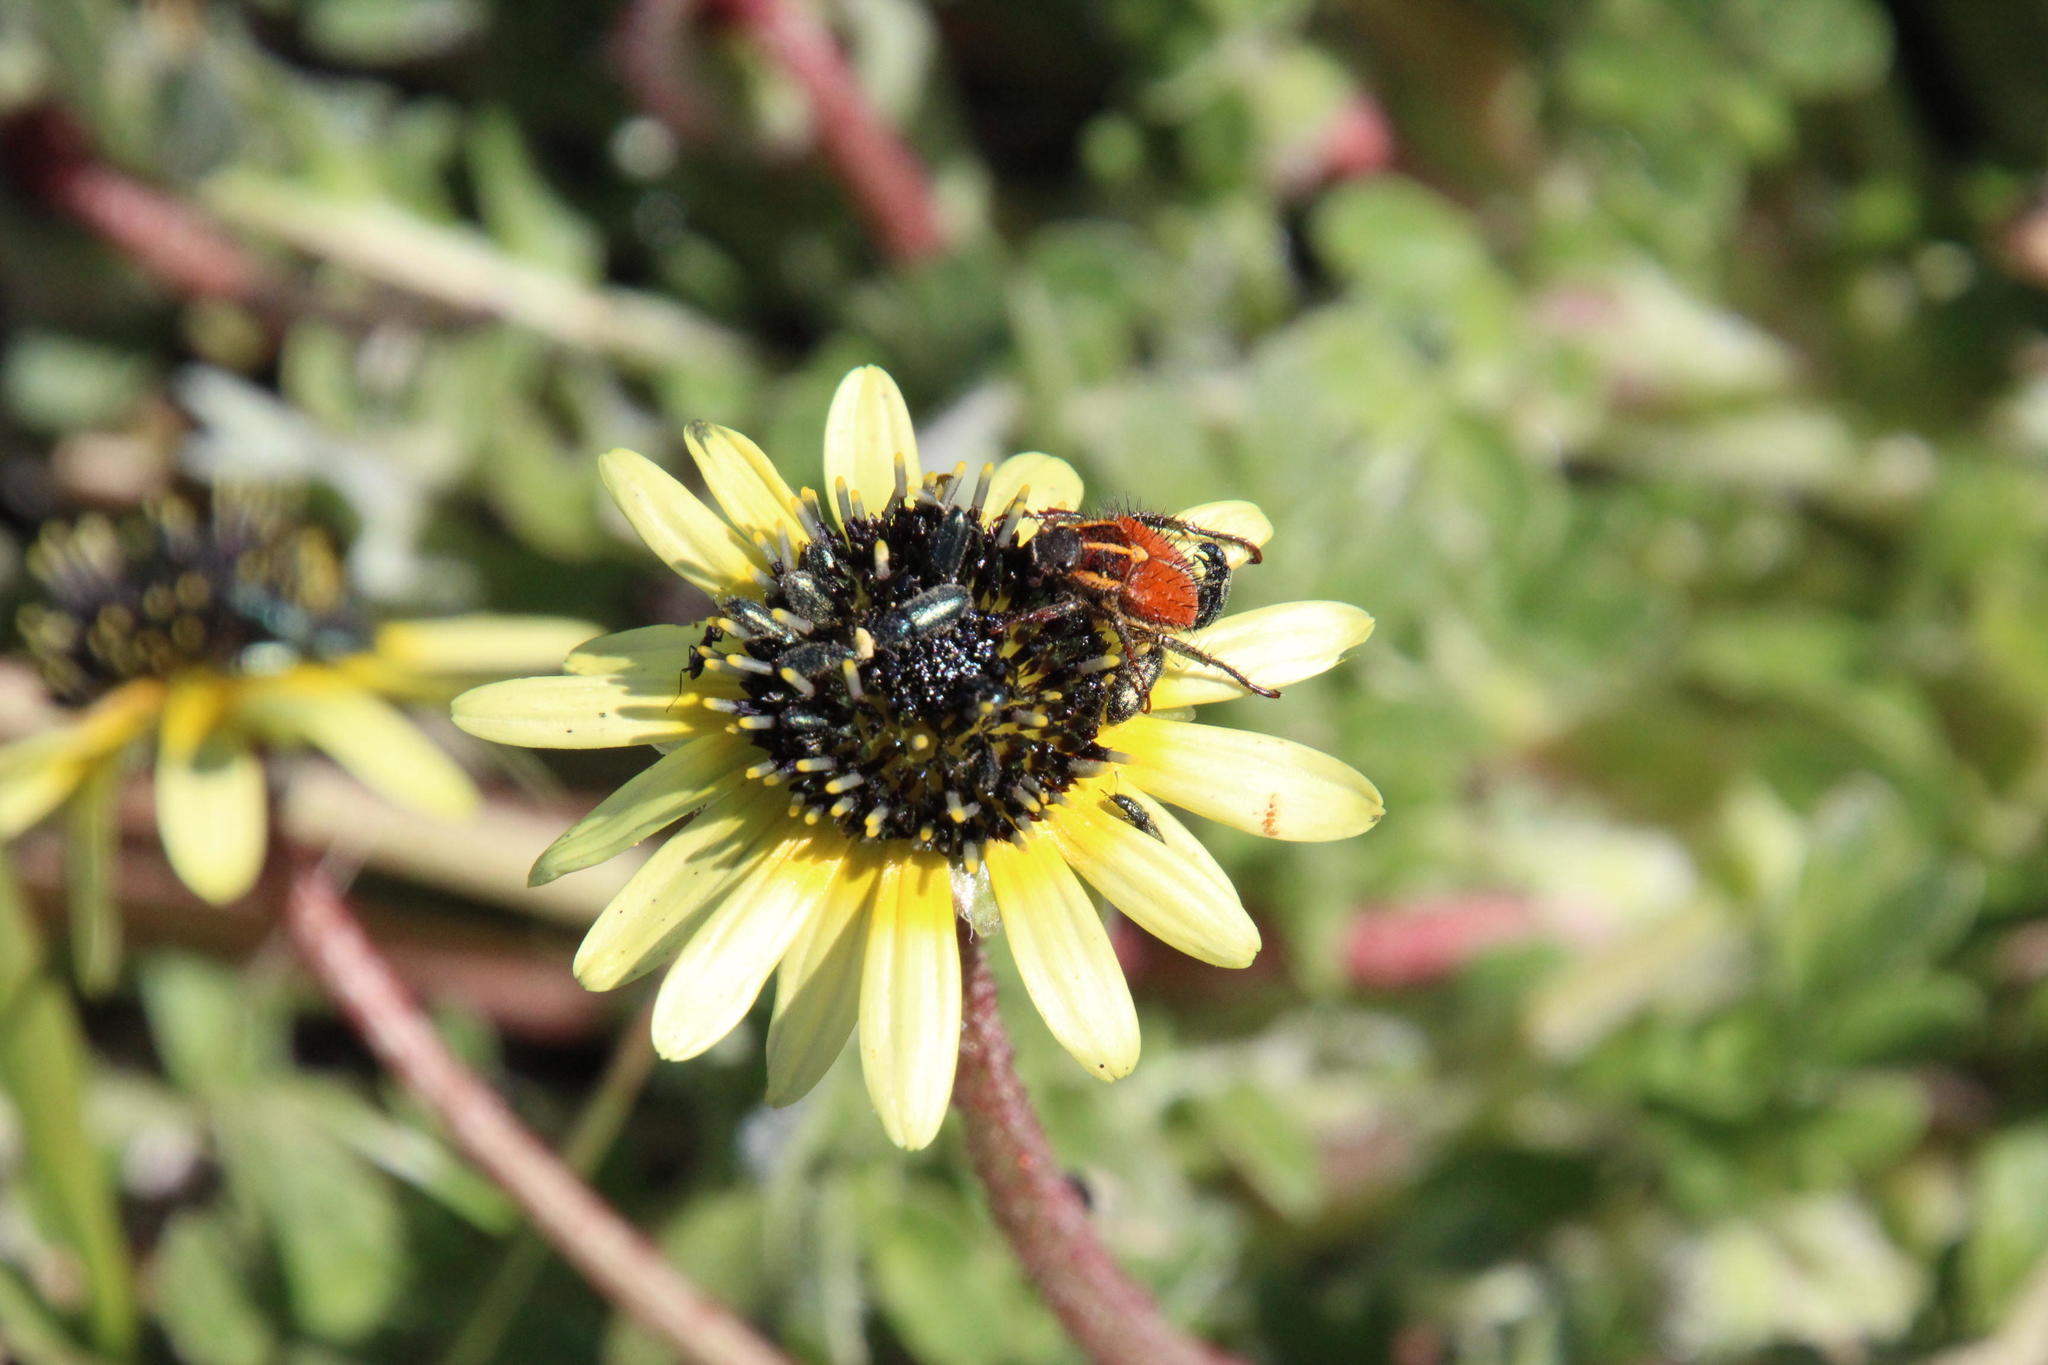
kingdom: Animalia
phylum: Arthropoda
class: Insecta
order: Coleoptera
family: Scarabaeidae
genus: Clania
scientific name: Clania glenlyonensis
